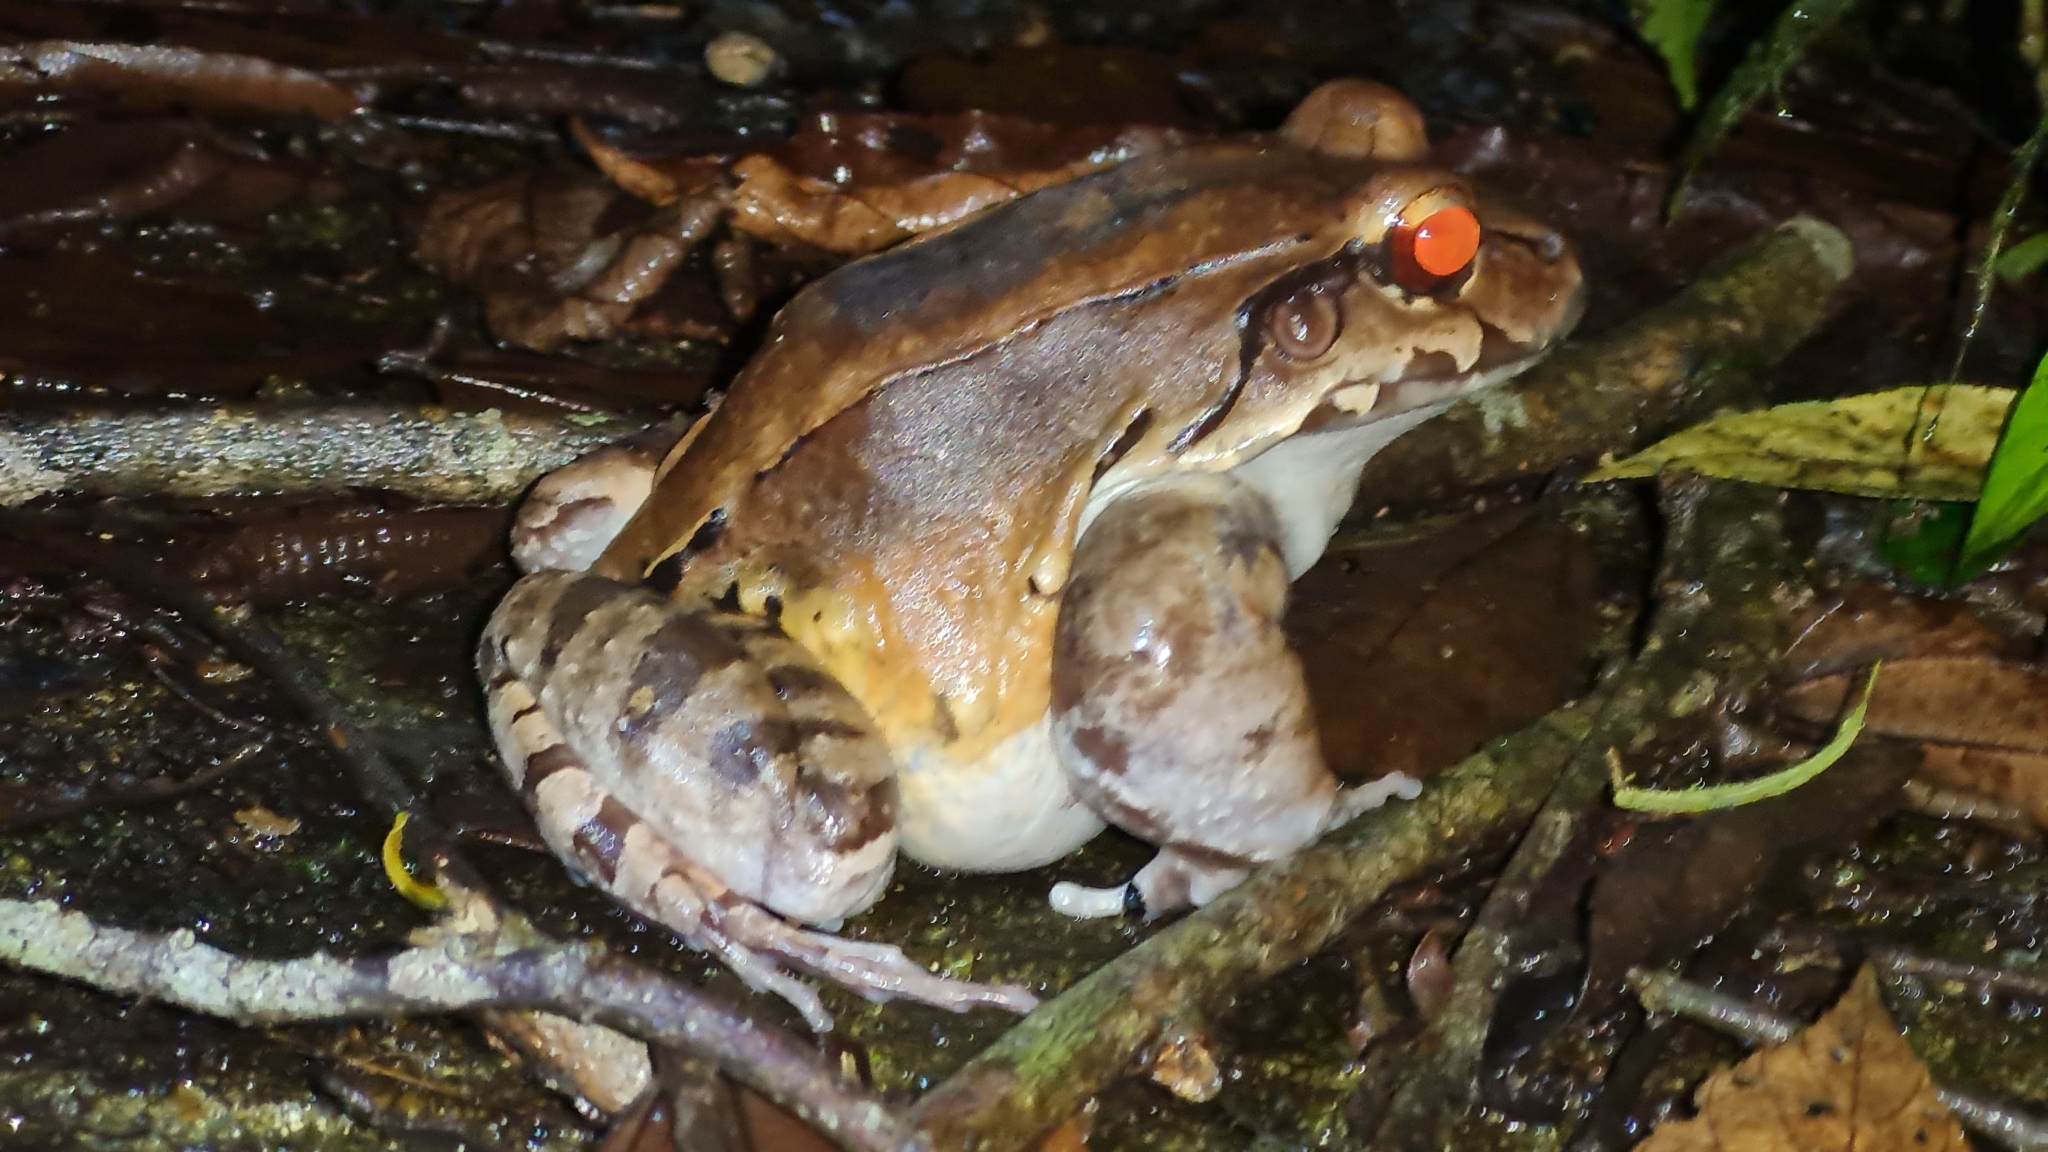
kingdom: Animalia
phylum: Chordata
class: Amphibia
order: Anura
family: Leptodactylidae
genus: Leptodactylus
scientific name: Leptodactylus savagei
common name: Savage's thin-toed frog
